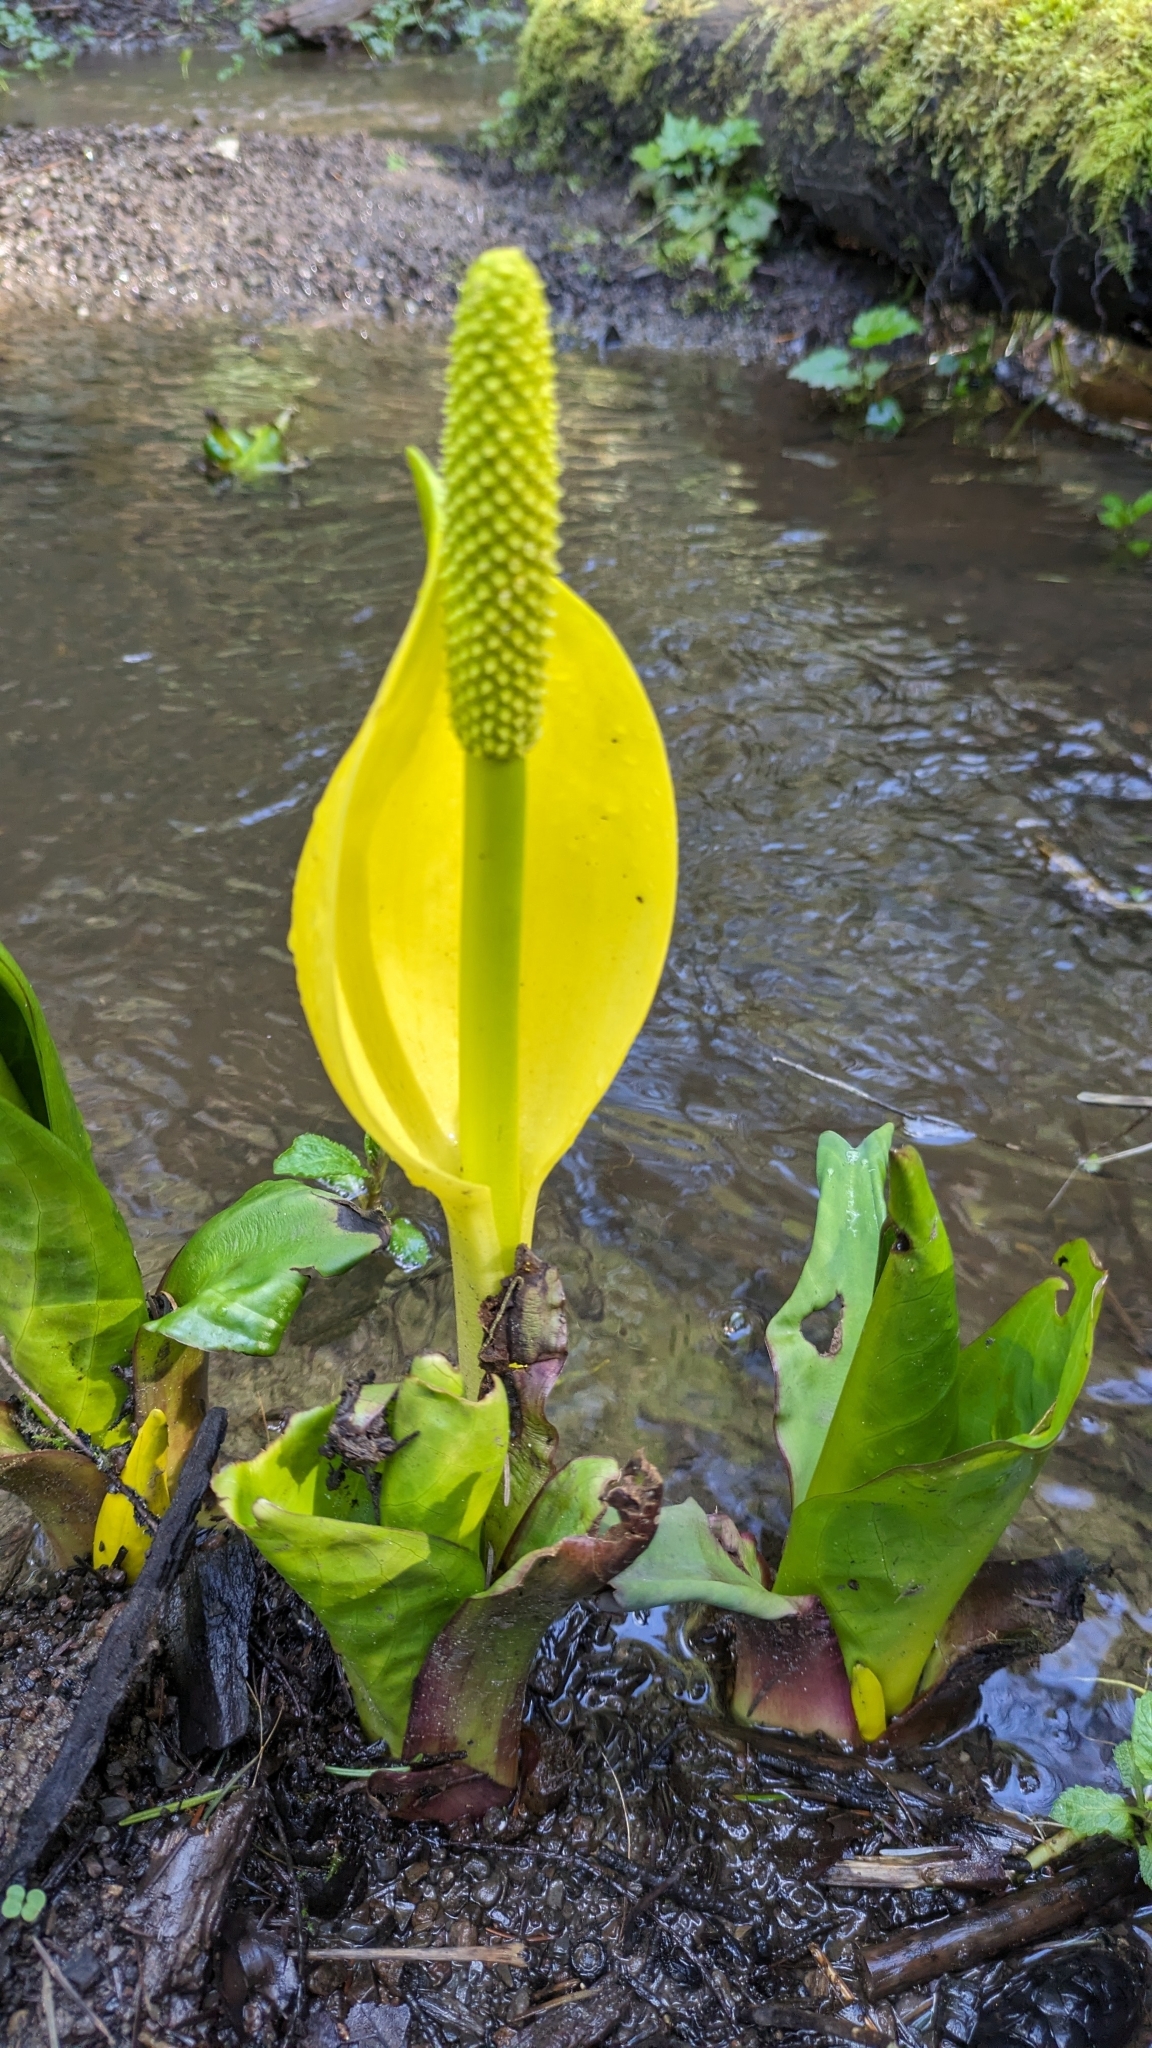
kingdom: Plantae
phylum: Tracheophyta
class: Liliopsida
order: Alismatales
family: Araceae
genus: Lysichiton
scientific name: Lysichiton americanus
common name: American skunk cabbage
